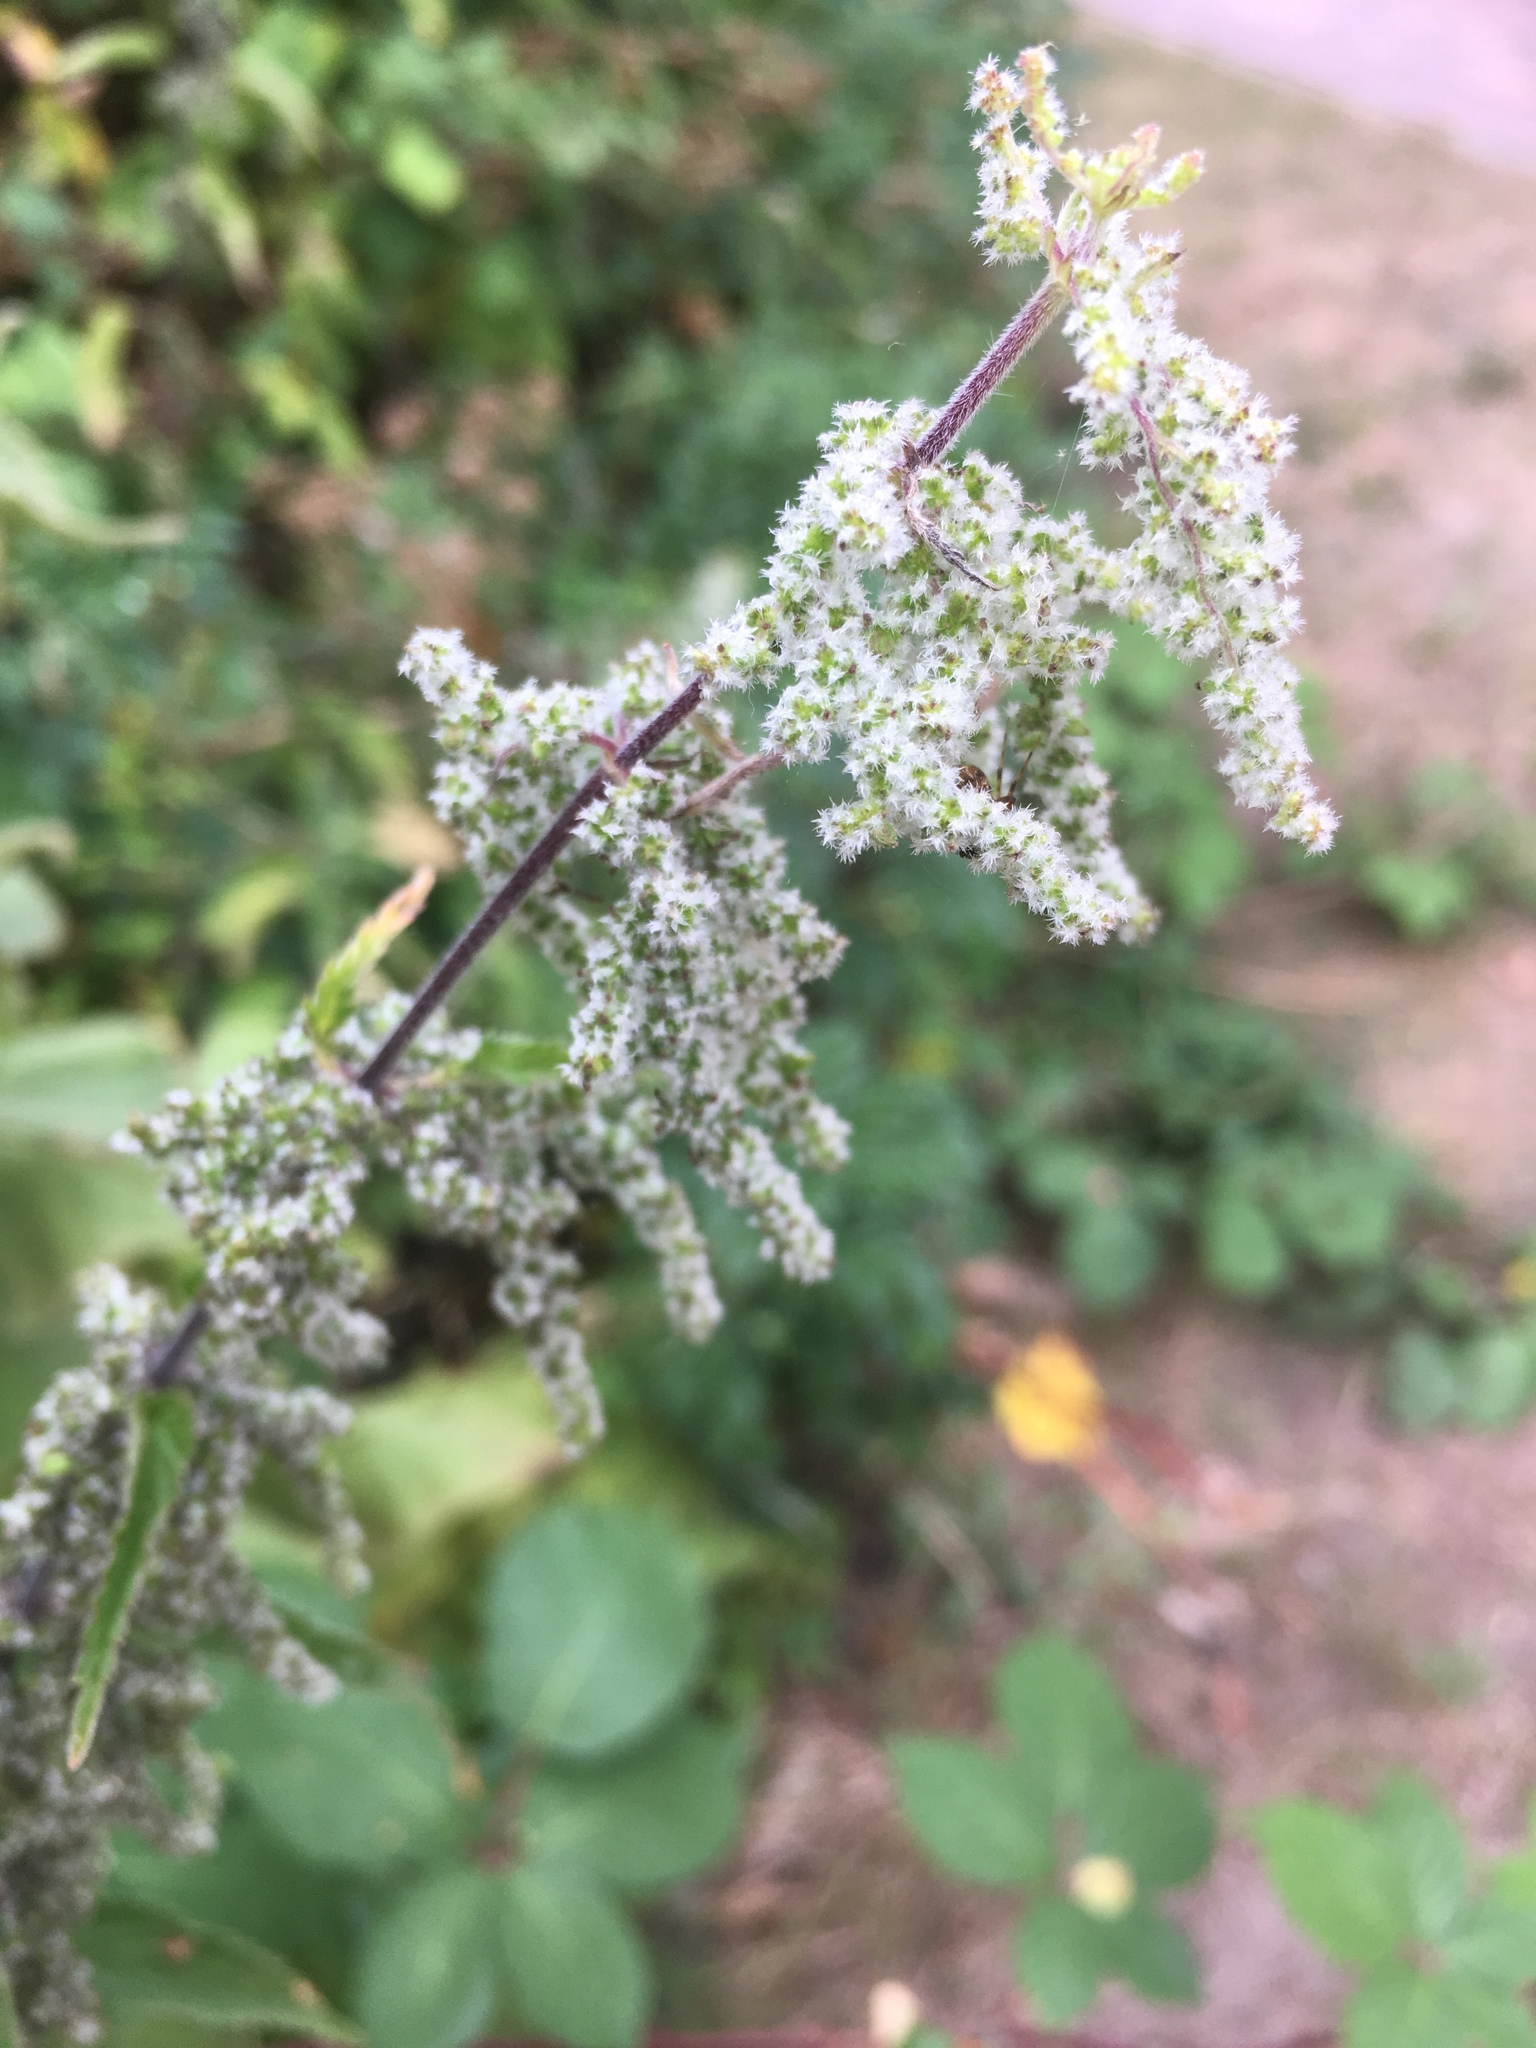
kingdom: Plantae
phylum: Tracheophyta
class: Magnoliopsida
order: Rosales
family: Urticaceae
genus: Urtica
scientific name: Urtica dioica
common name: Common nettle
